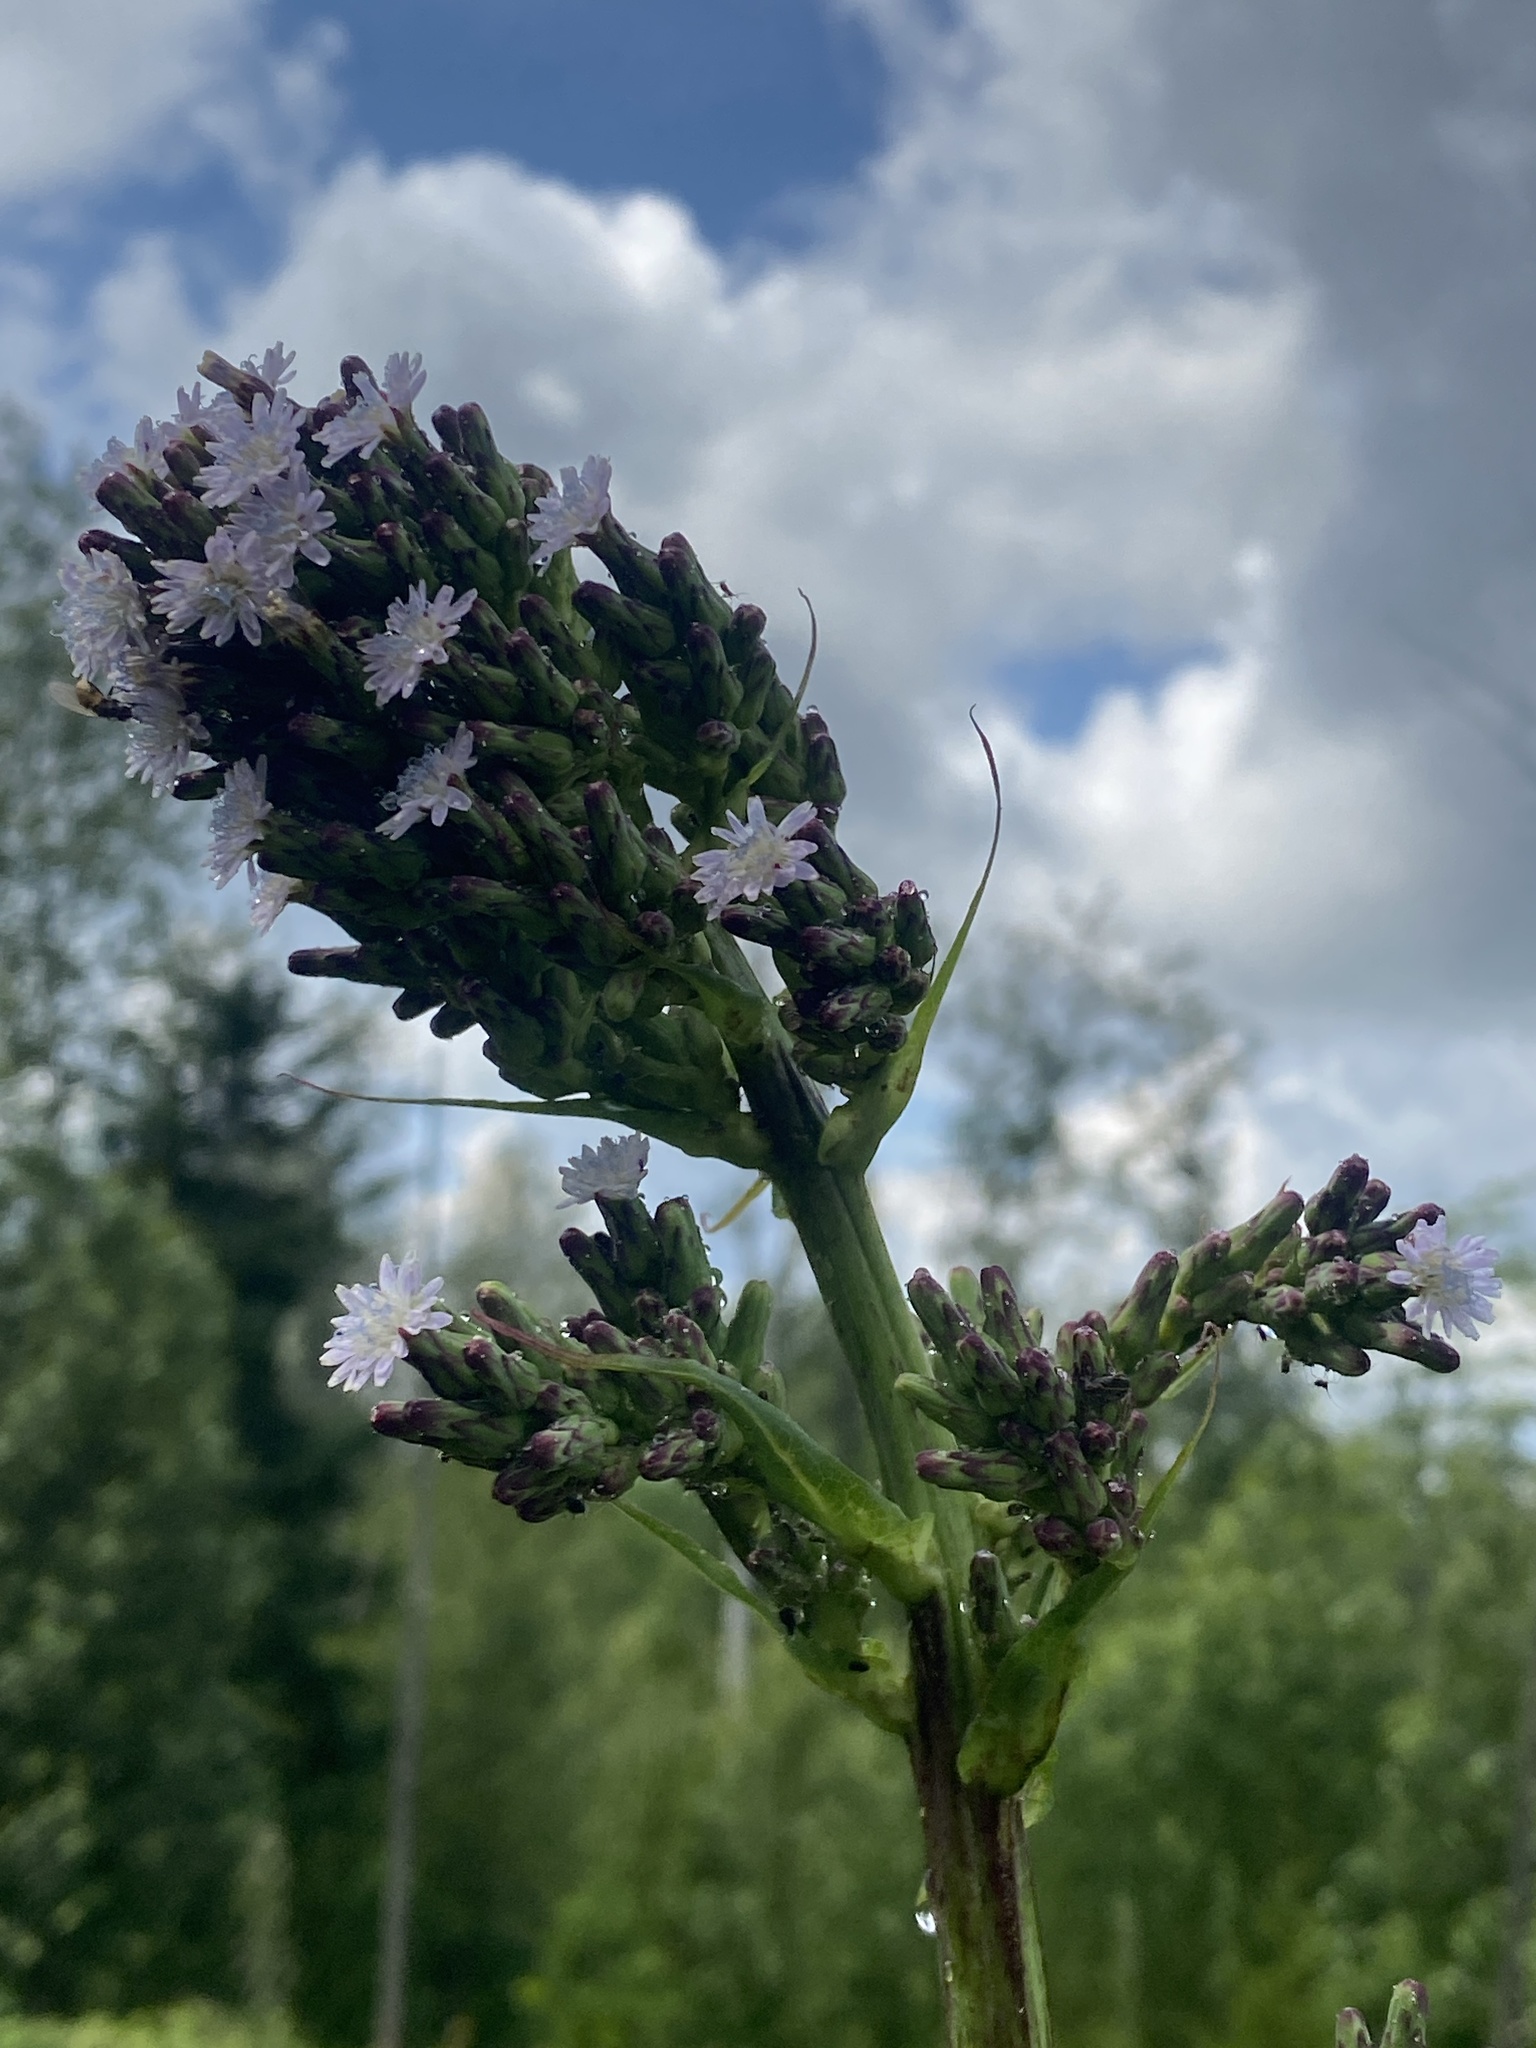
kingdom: Plantae
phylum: Tracheophyta
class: Magnoliopsida
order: Asterales
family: Asteraceae
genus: Lactuca
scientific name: Lactuca biennis
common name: Blue wood lettuce
